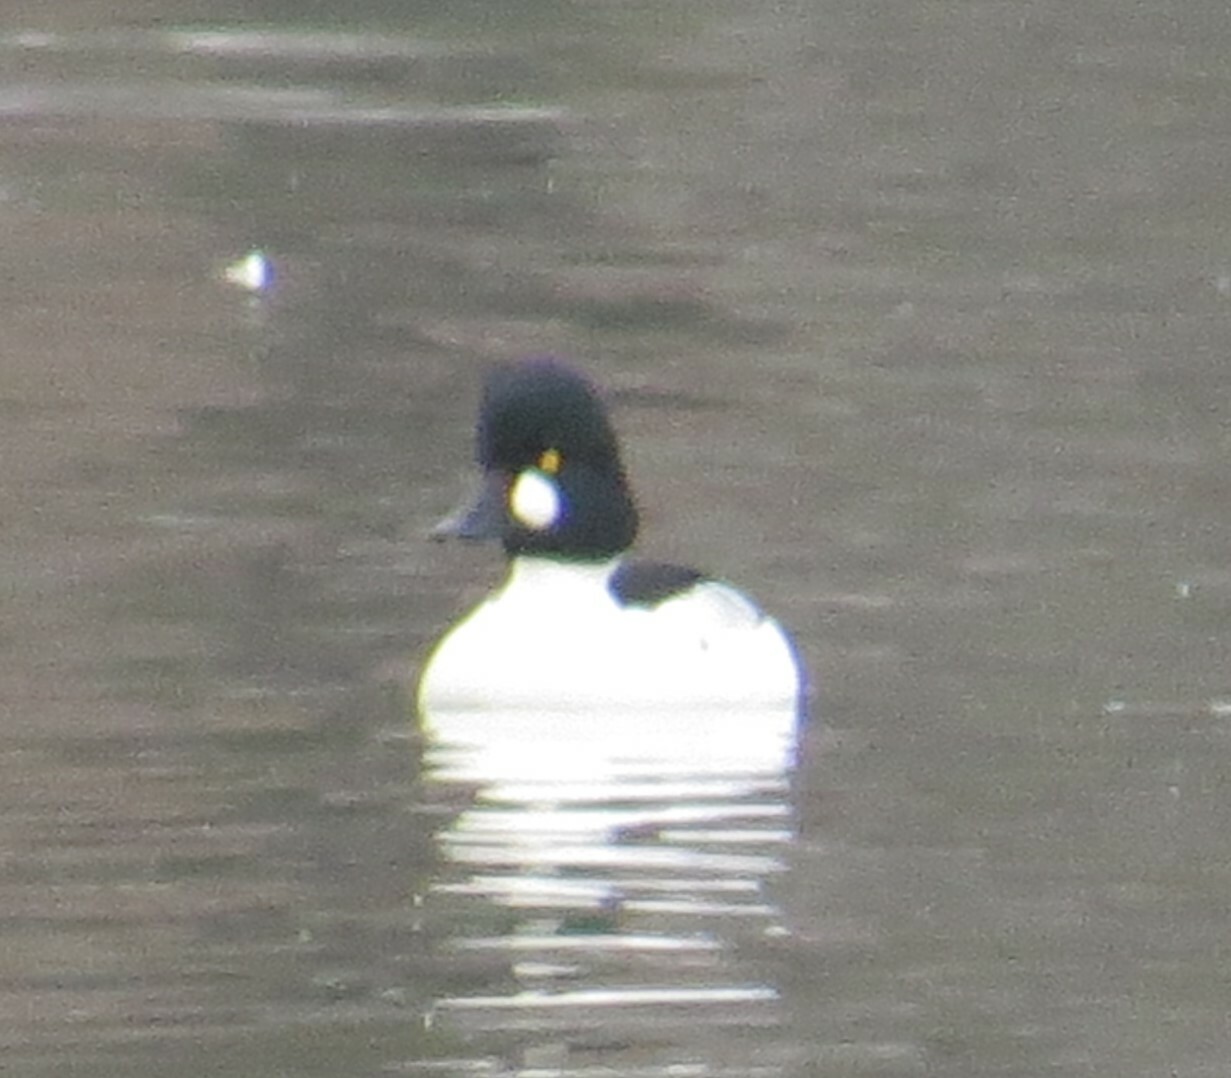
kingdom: Animalia
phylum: Chordata
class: Aves
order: Anseriformes
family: Anatidae
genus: Bucephala
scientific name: Bucephala clangula
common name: Common goldeneye
